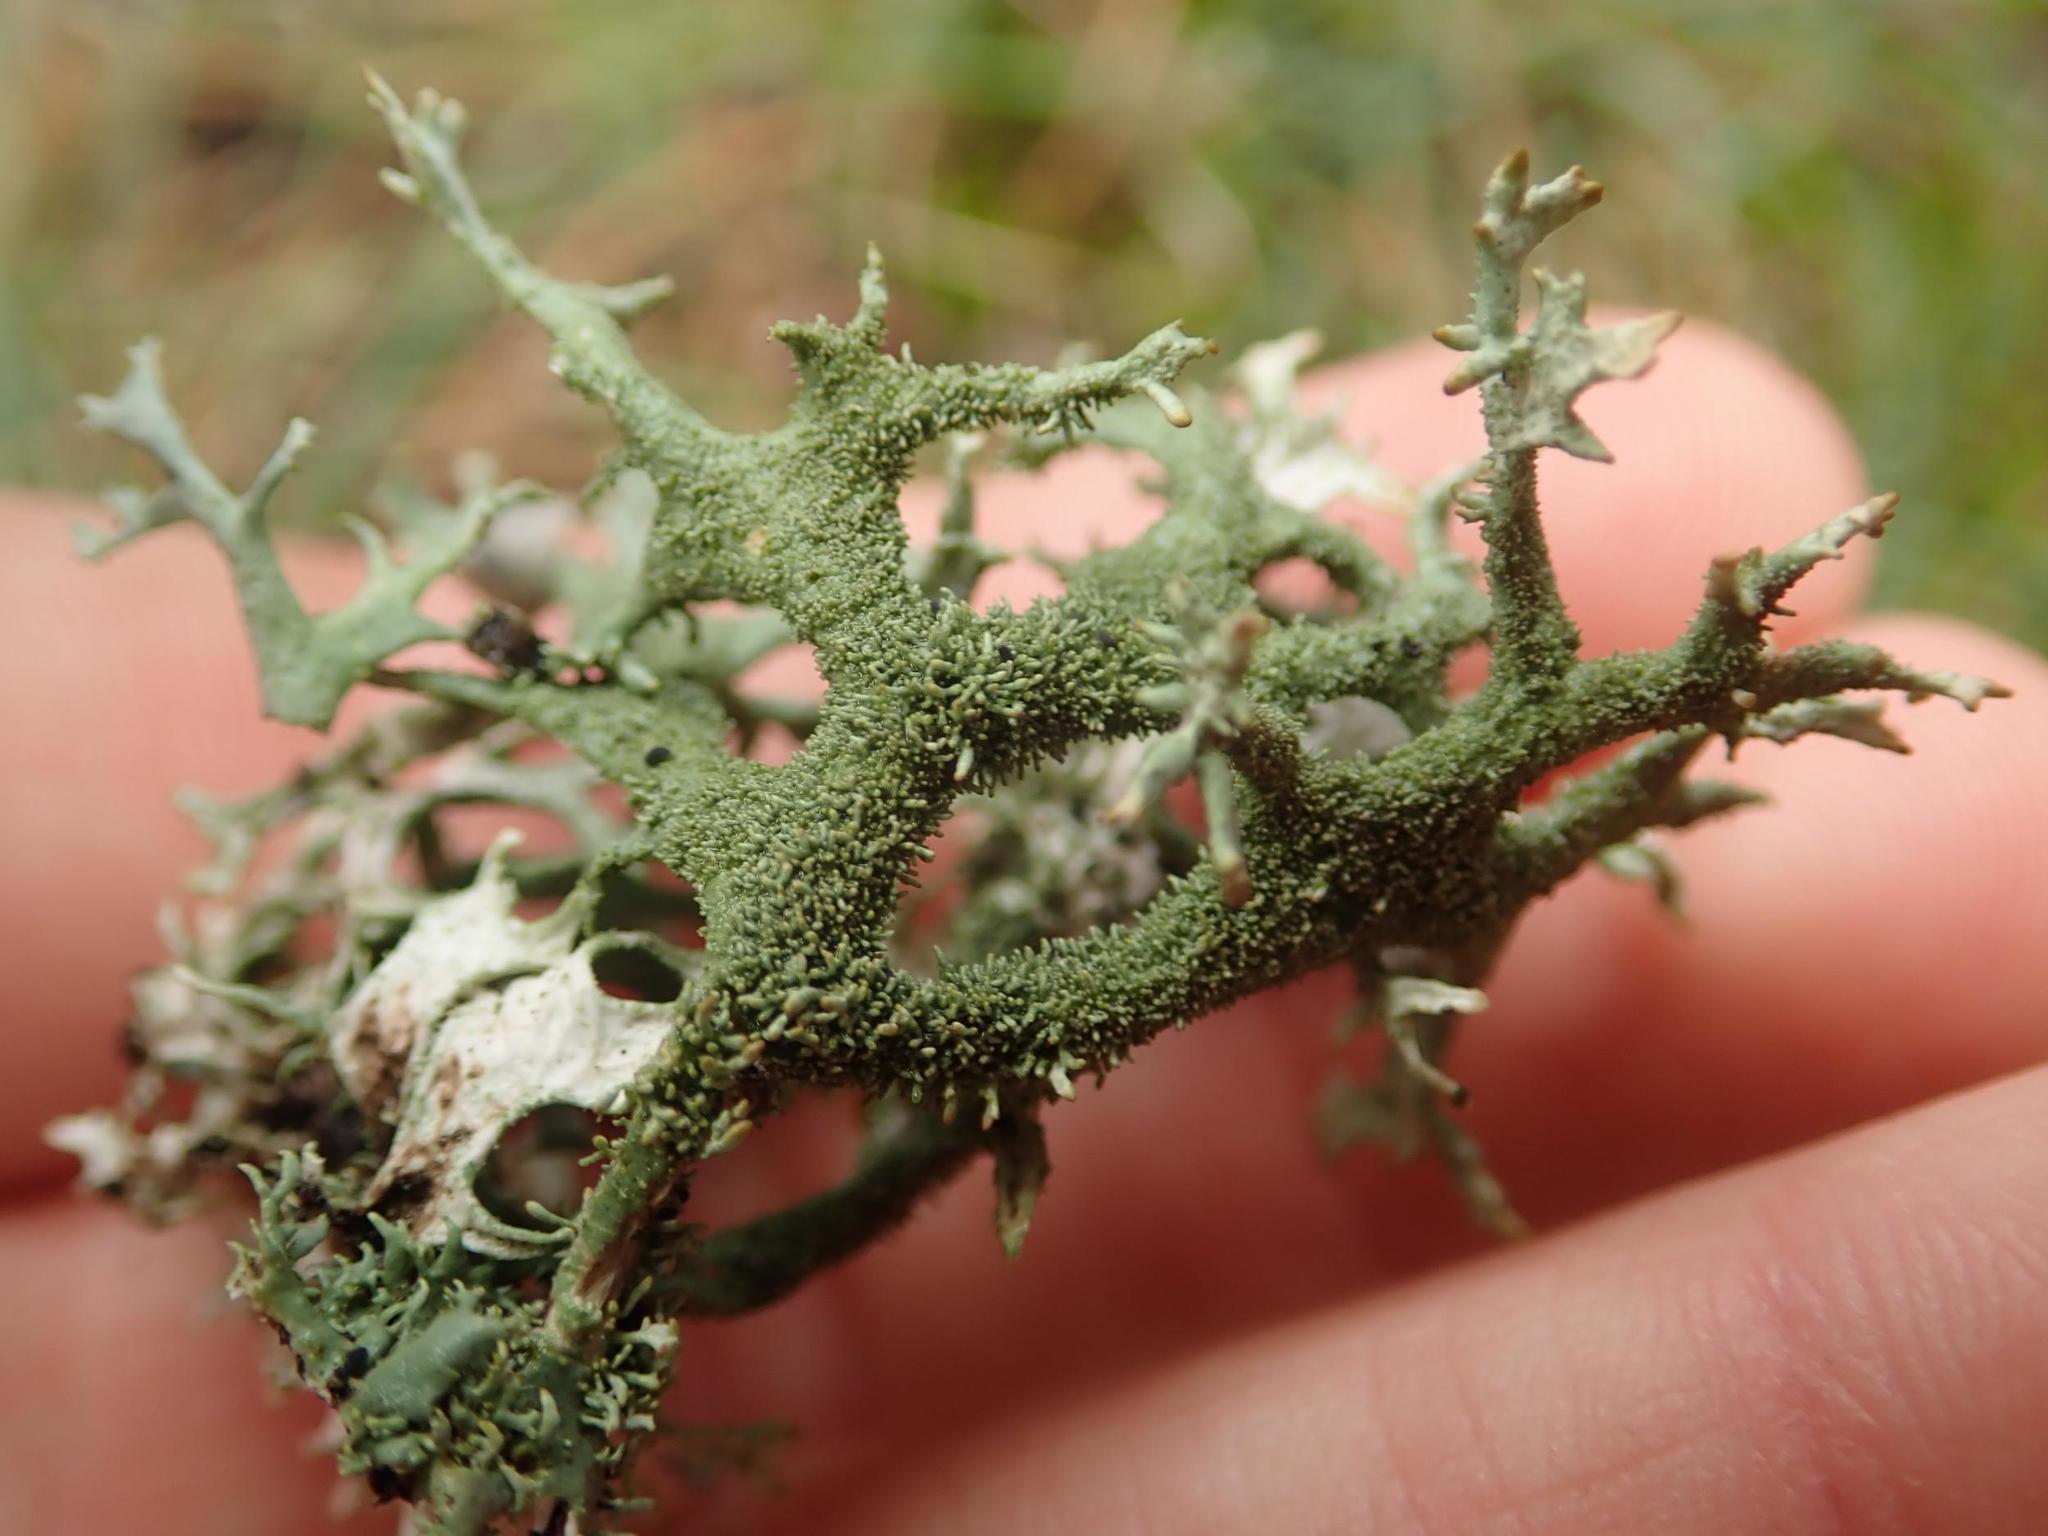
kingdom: Fungi
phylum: Ascomycota
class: Lecanoromycetes
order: Lecanorales
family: Parmeliaceae
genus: Pseudevernia
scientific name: Pseudevernia furfuracea
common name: Tree moss
